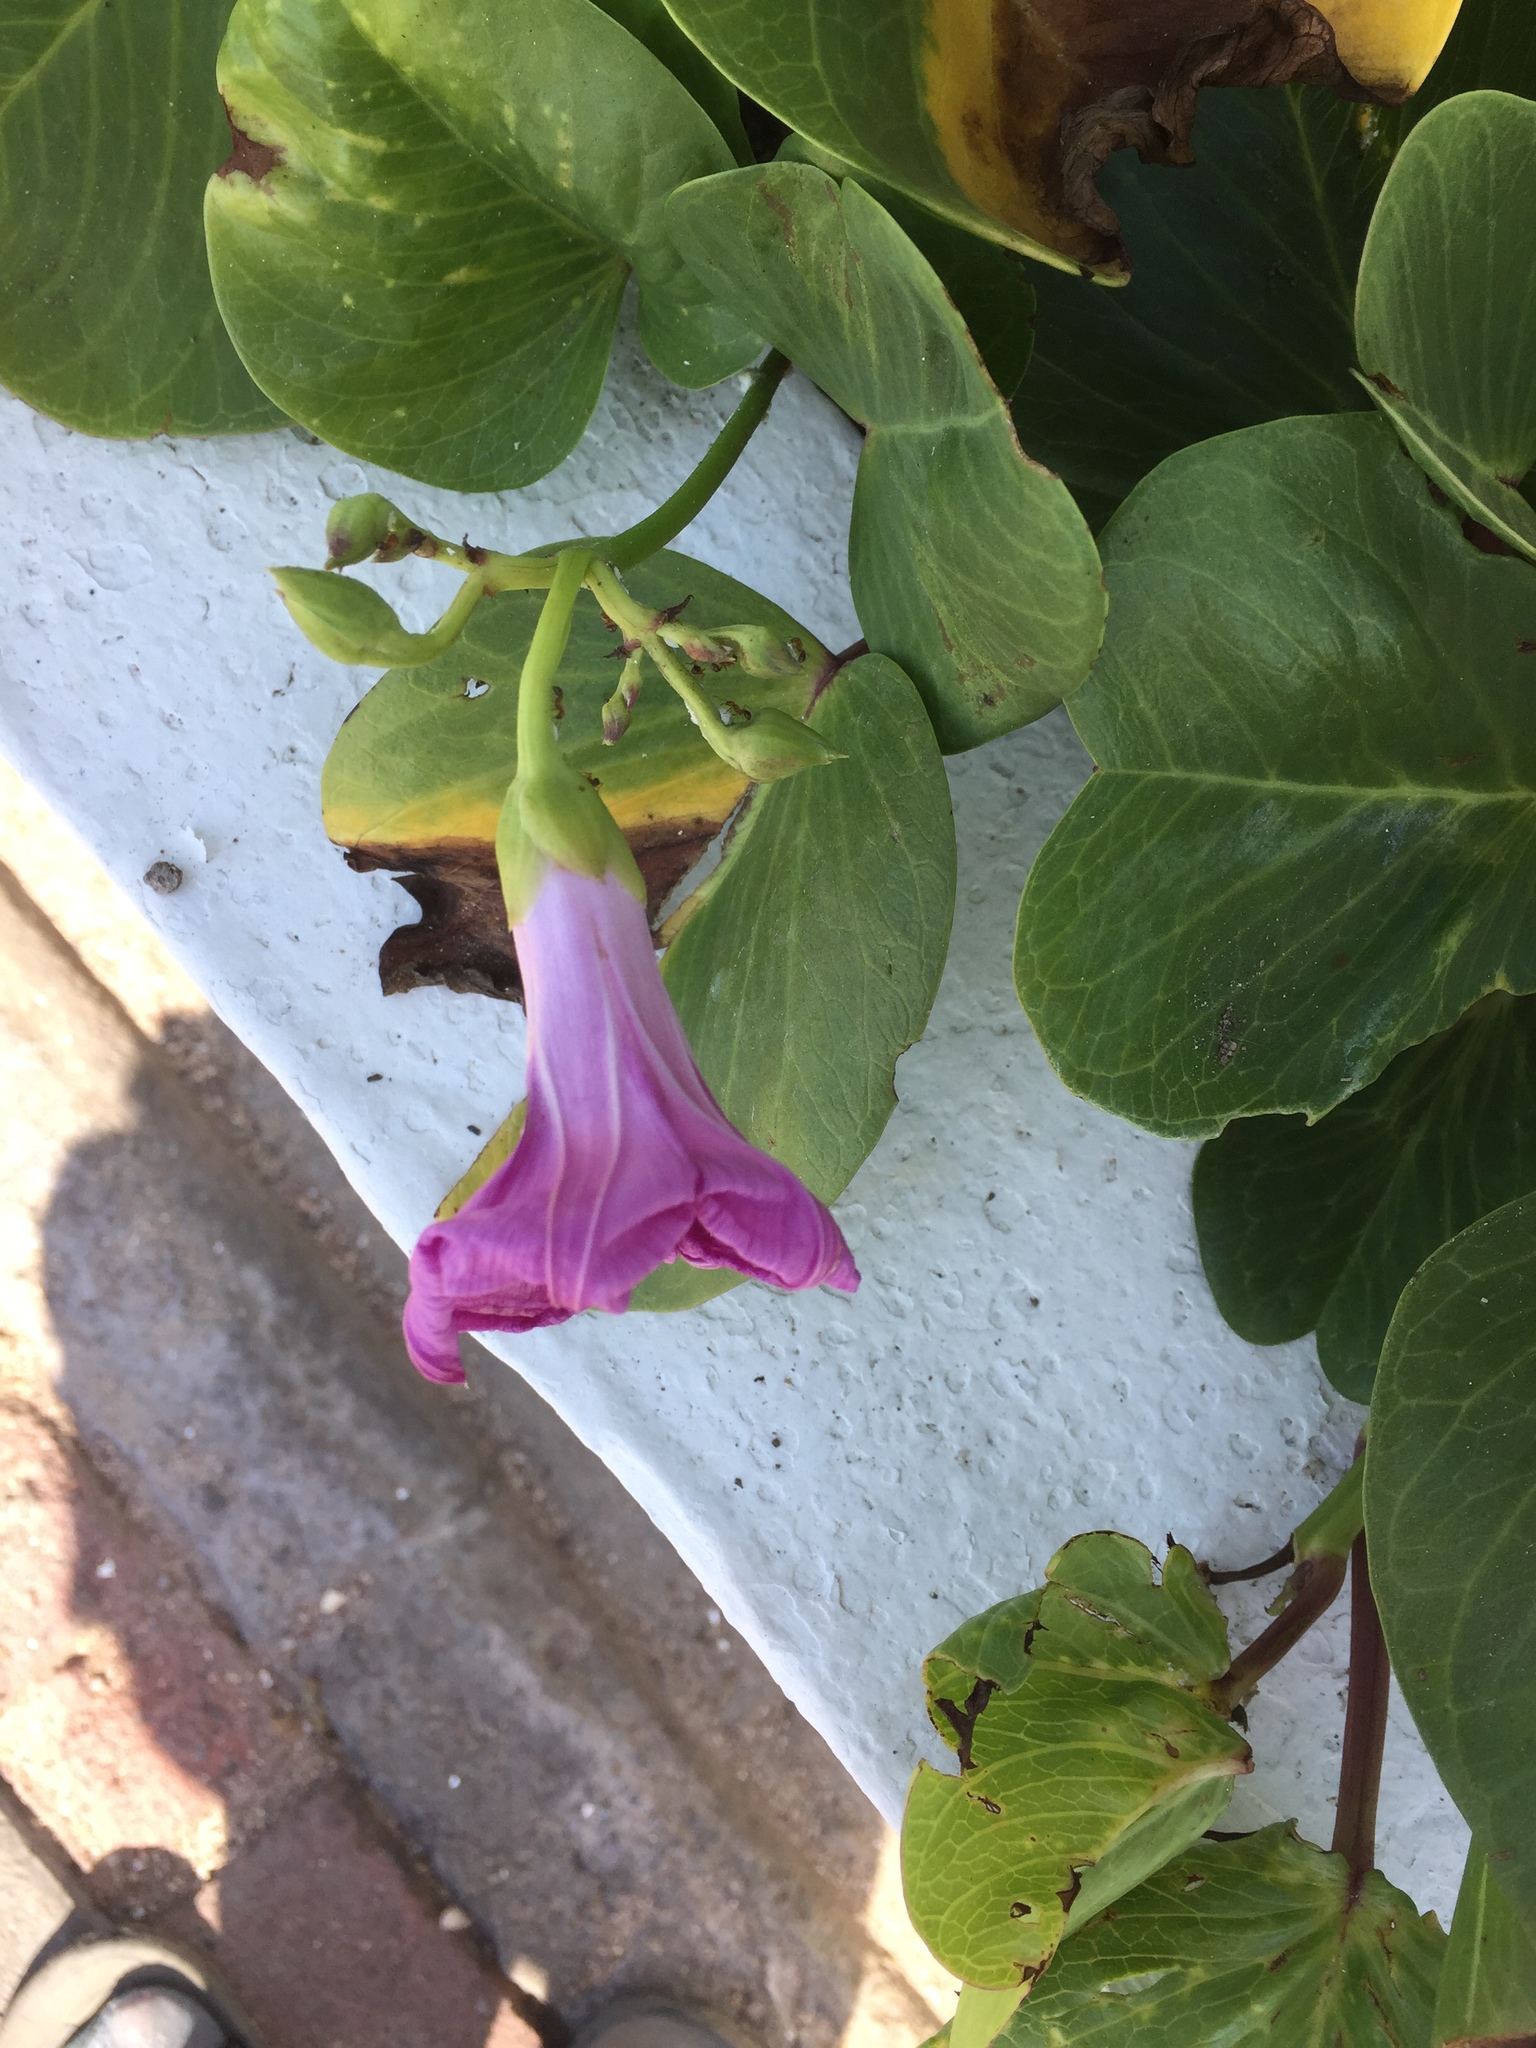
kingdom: Plantae
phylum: Tracheophyta
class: Magnoliopsida
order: Solanales
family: Convolvulaceae
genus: Ipomoea
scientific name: Ipomoea pes-caprae
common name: Beach morning glory
